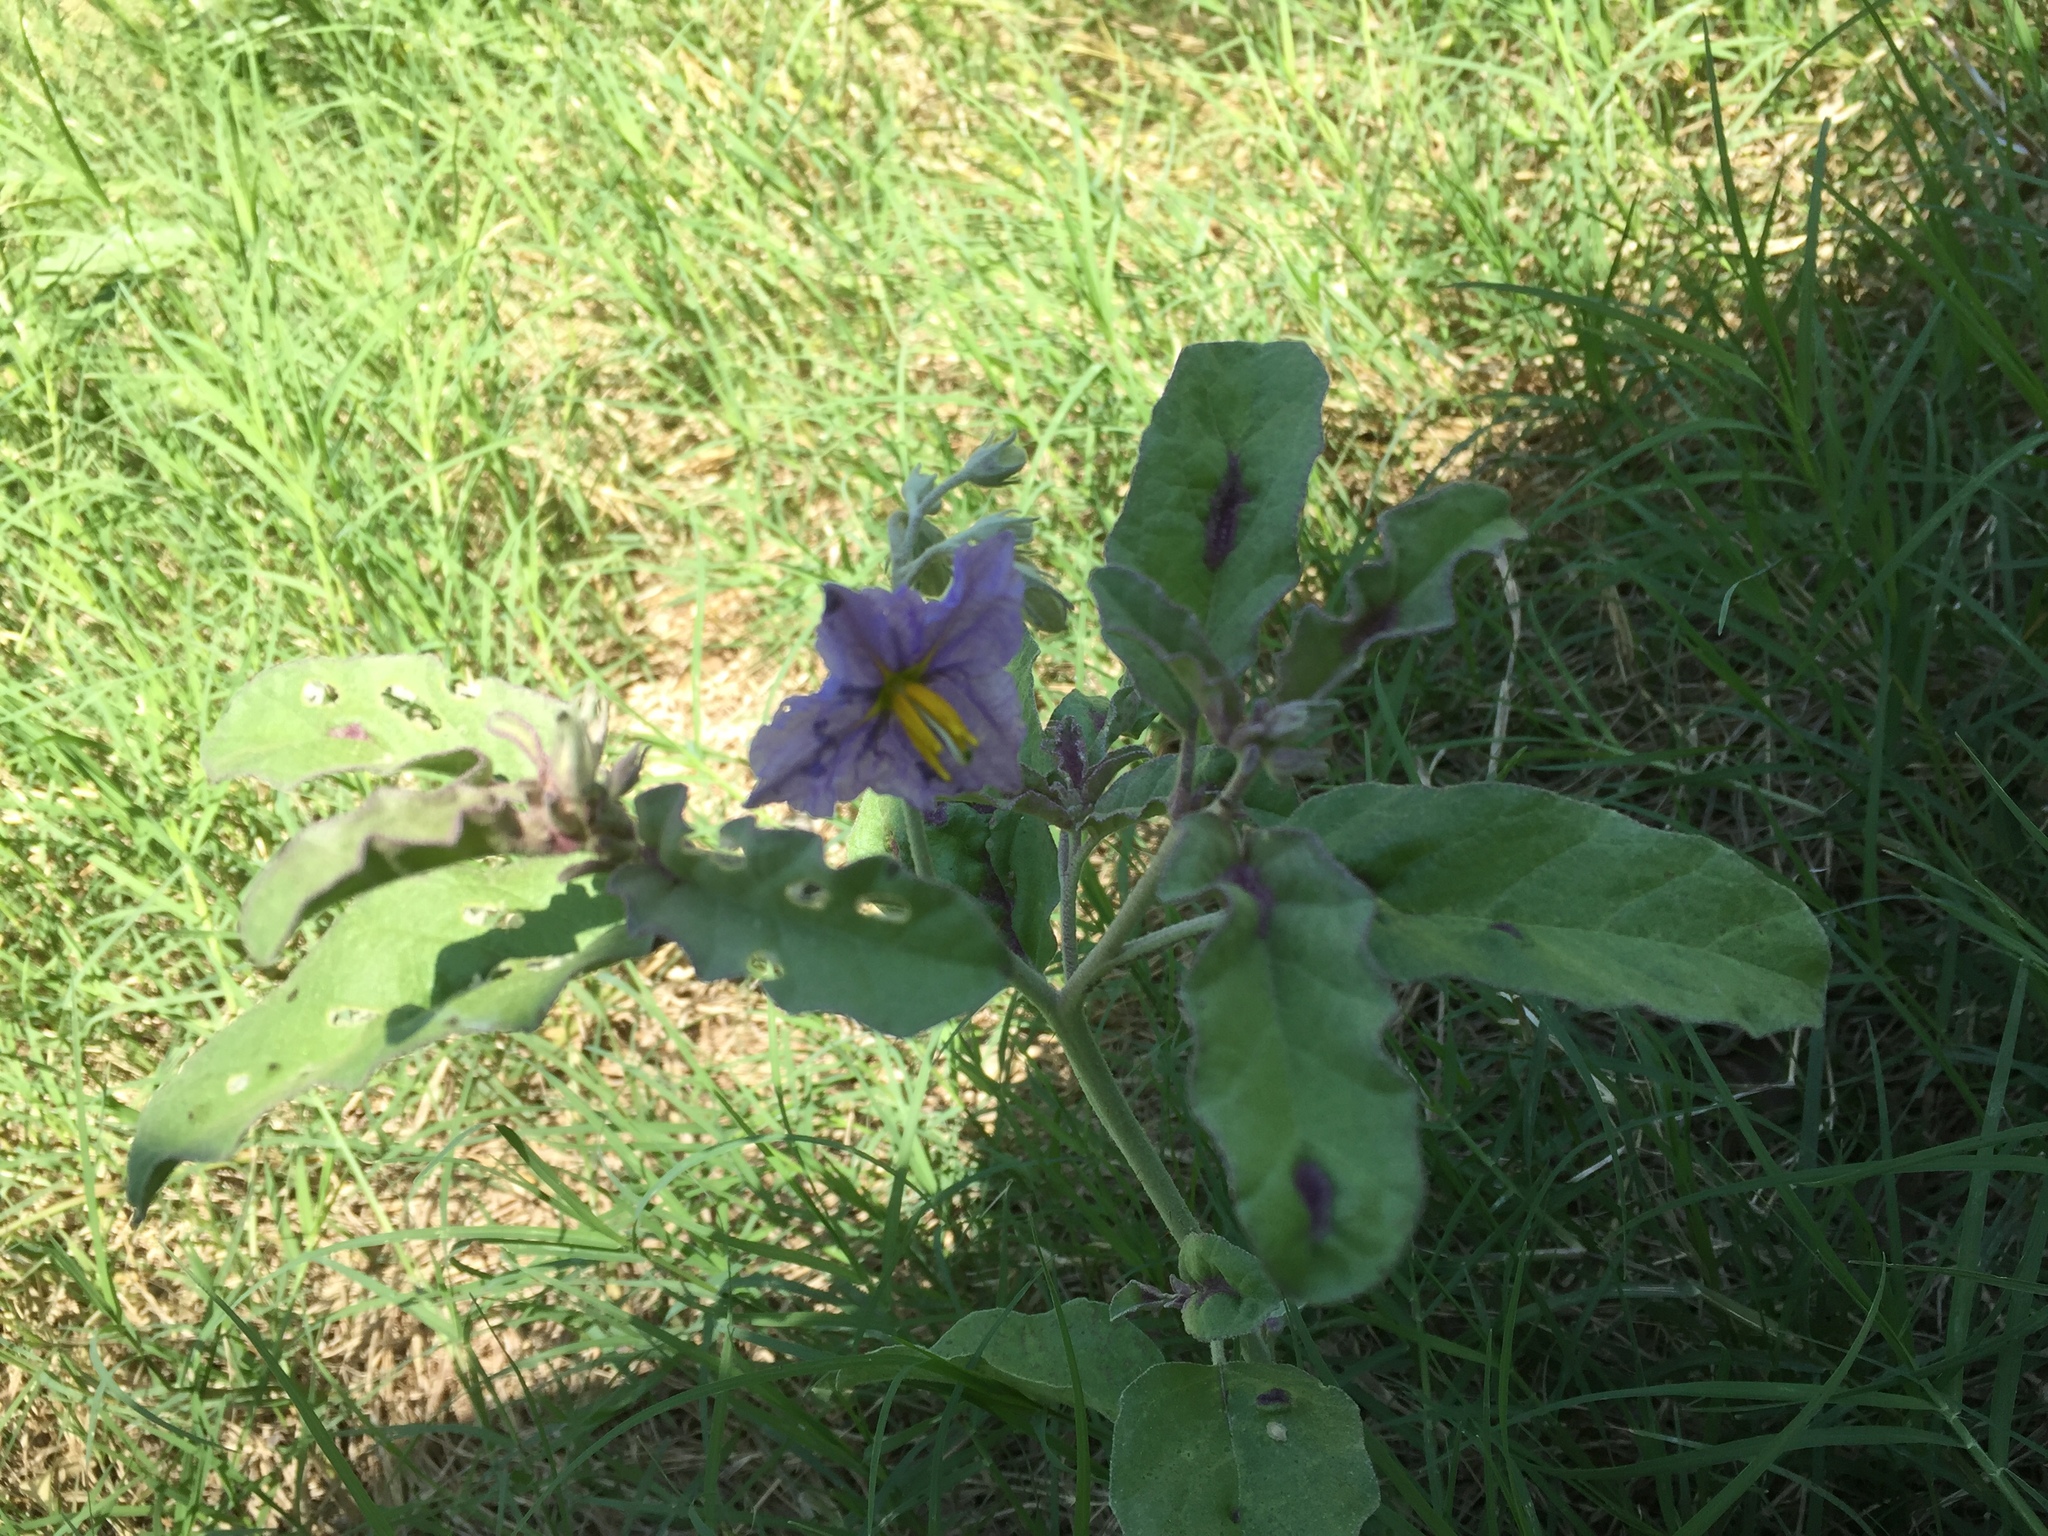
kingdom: Plantae
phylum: Tracheophyta
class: Magnoliopsida
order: Solanales
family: Solanaceae
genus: Solanum
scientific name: Solanum elaeagnifolium
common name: Silverleaf nightshade
